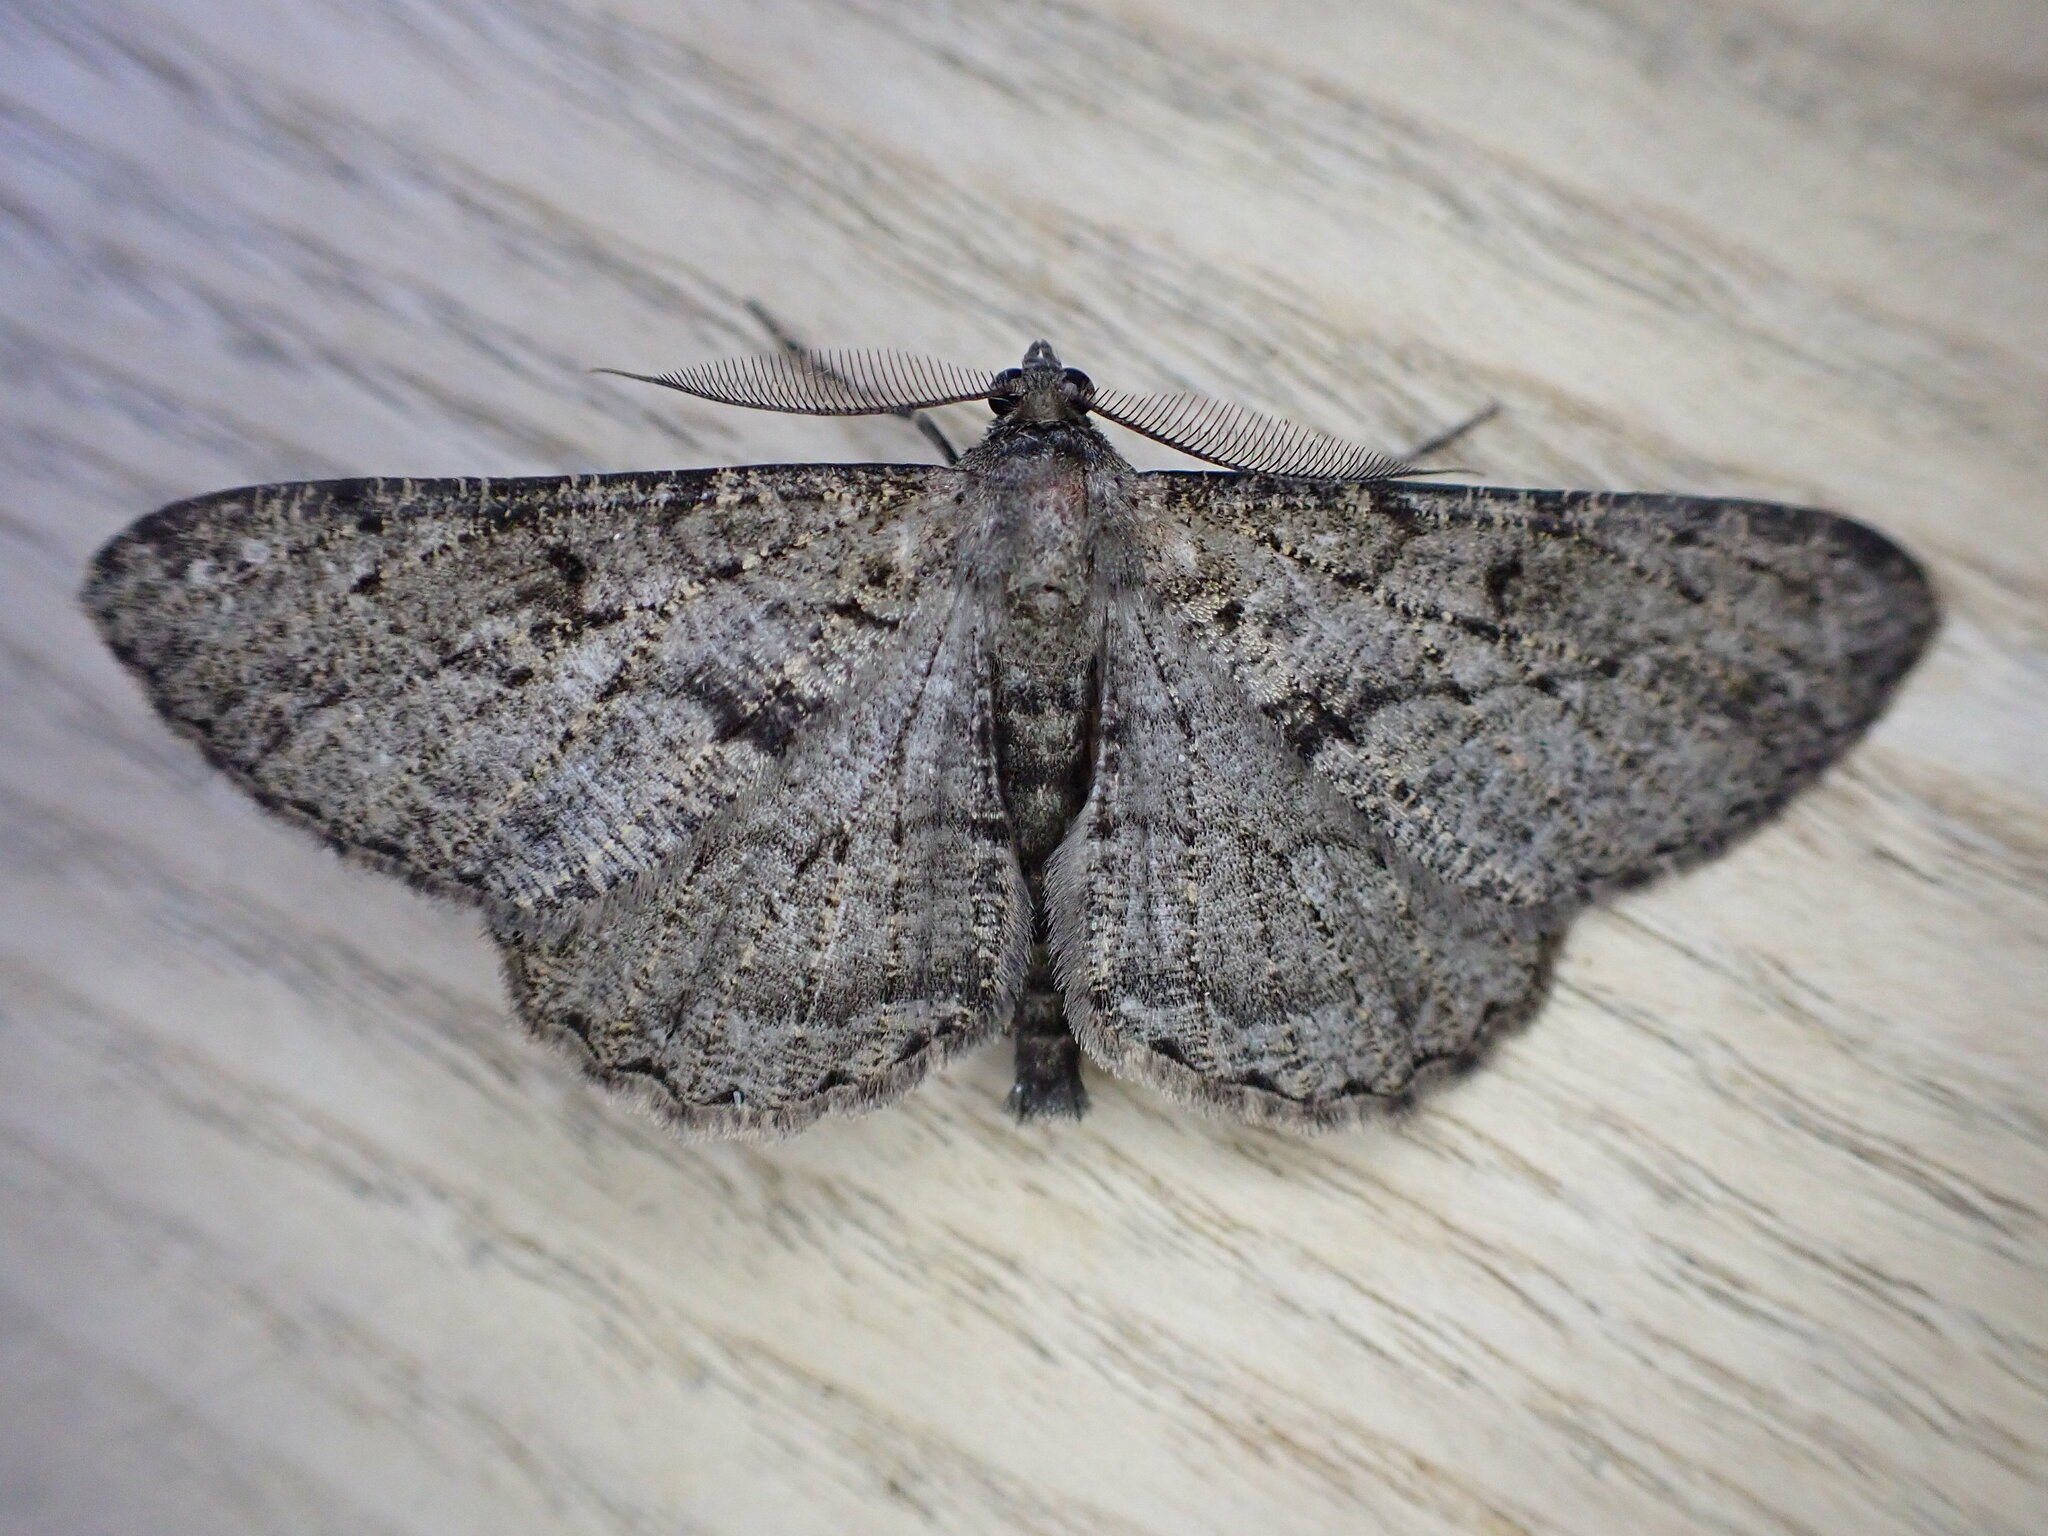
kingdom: Animalia
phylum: Arthropoda
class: Insecta
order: Lepidoptera
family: Geometridae
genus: Peribatodes
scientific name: Peribatodes rhomboidaria
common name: Willow beauty
